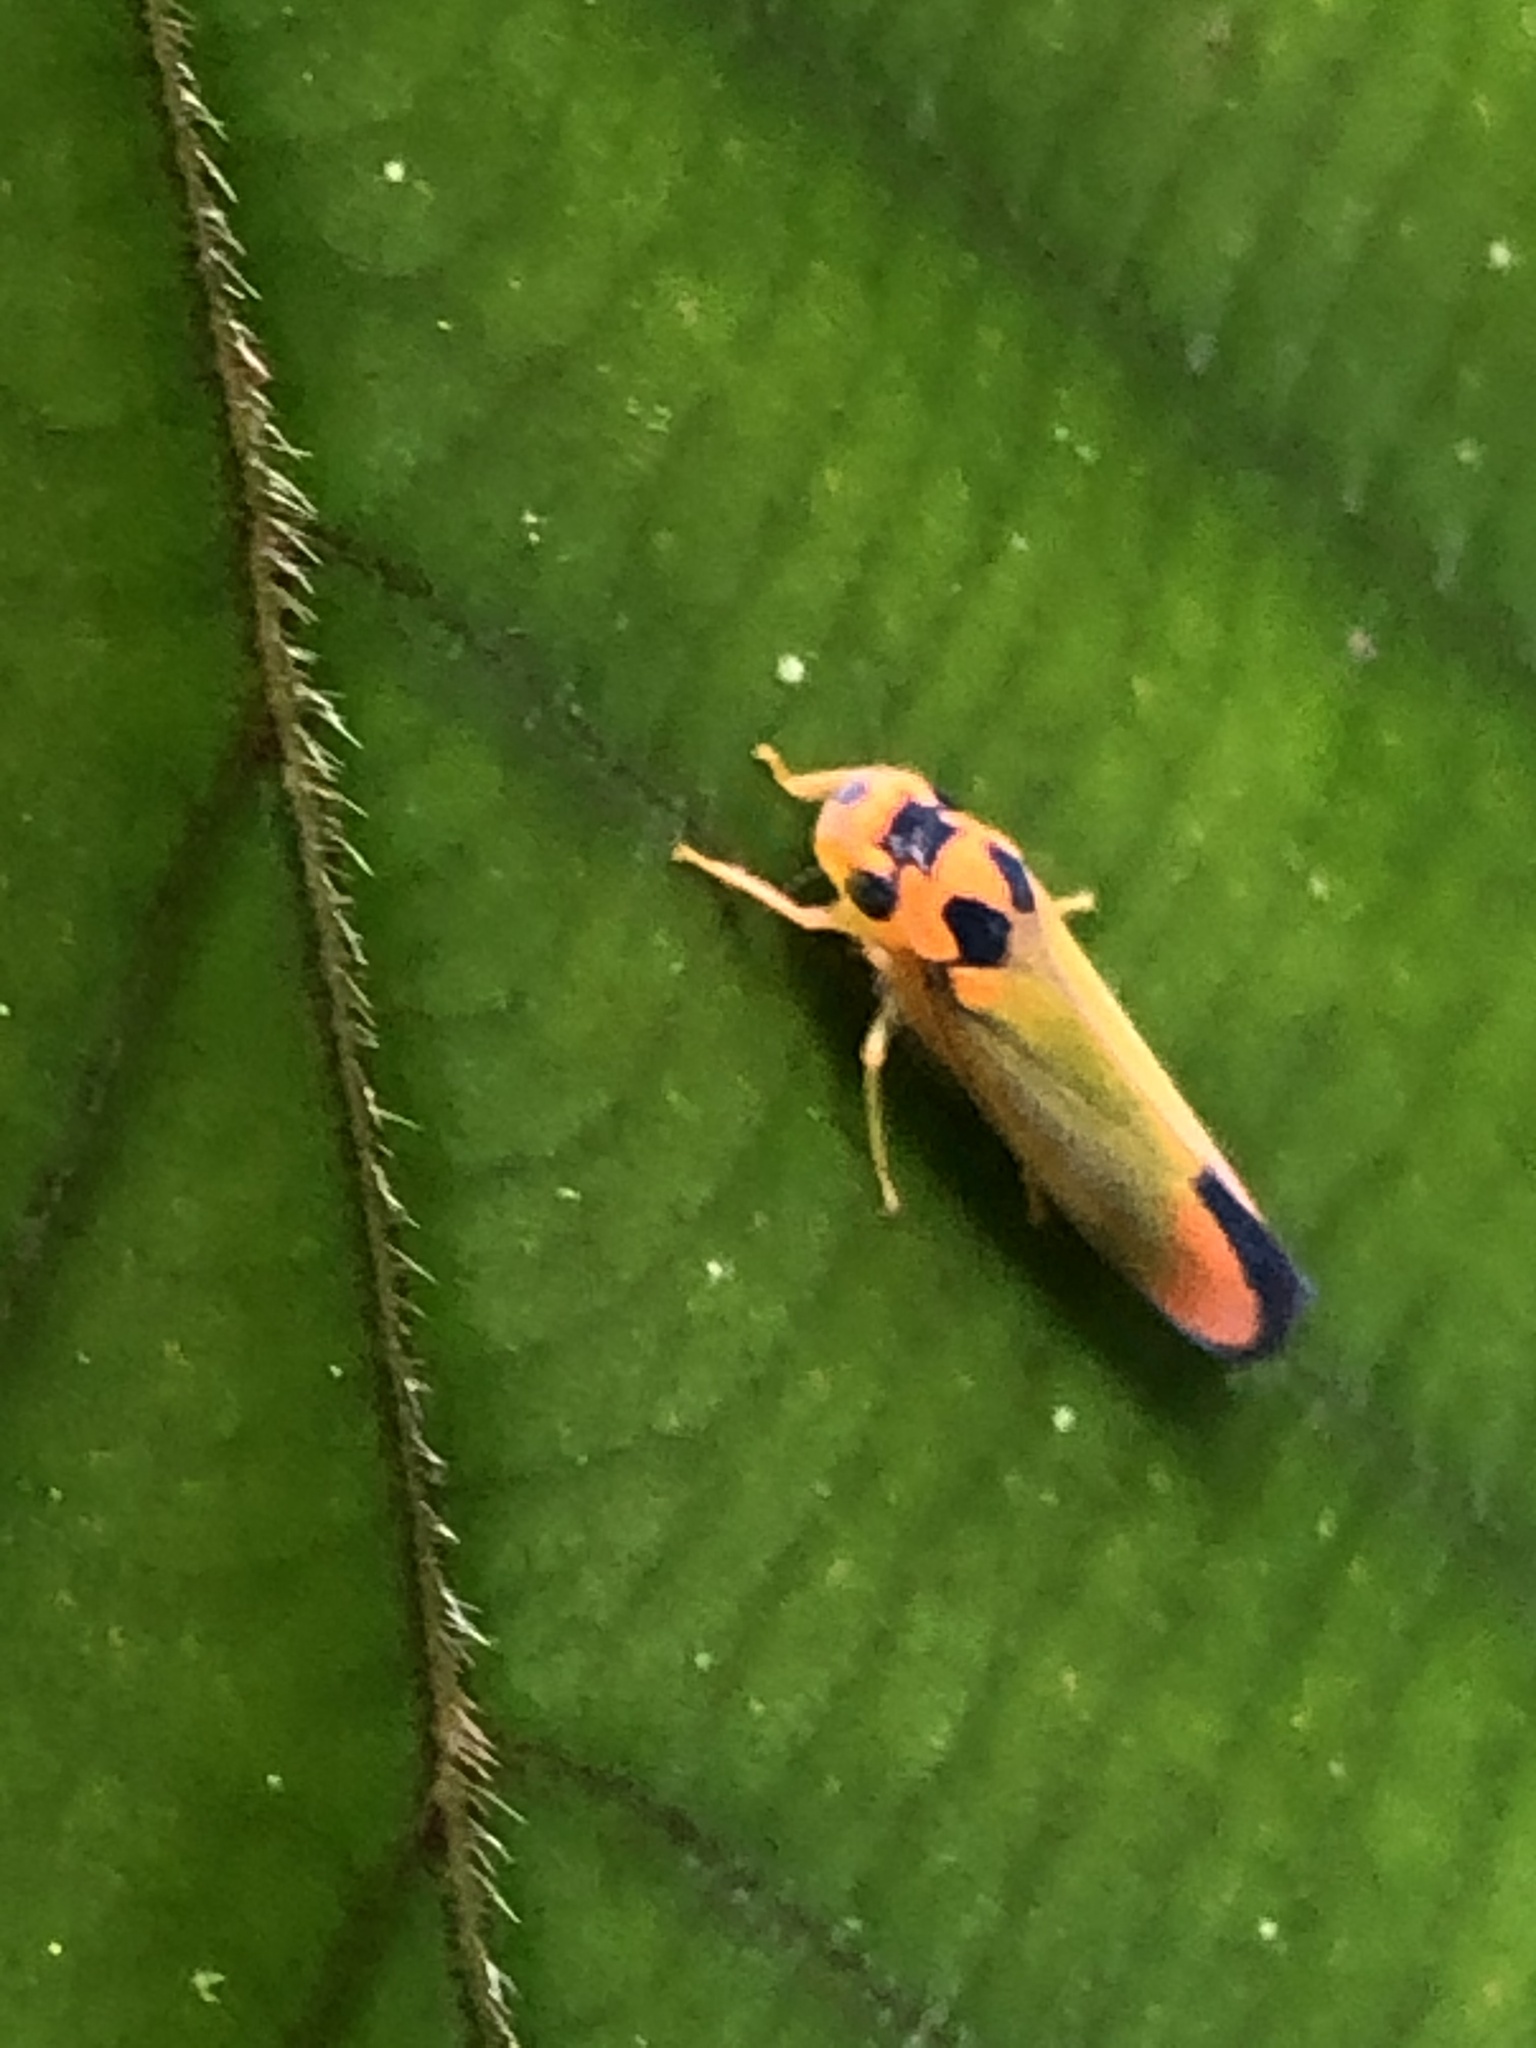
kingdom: Animalia
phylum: Arthropoda
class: Insecta
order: Hemiptera
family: Cicadellidae
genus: Soosiulus
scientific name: Soosiulus flammidulus
